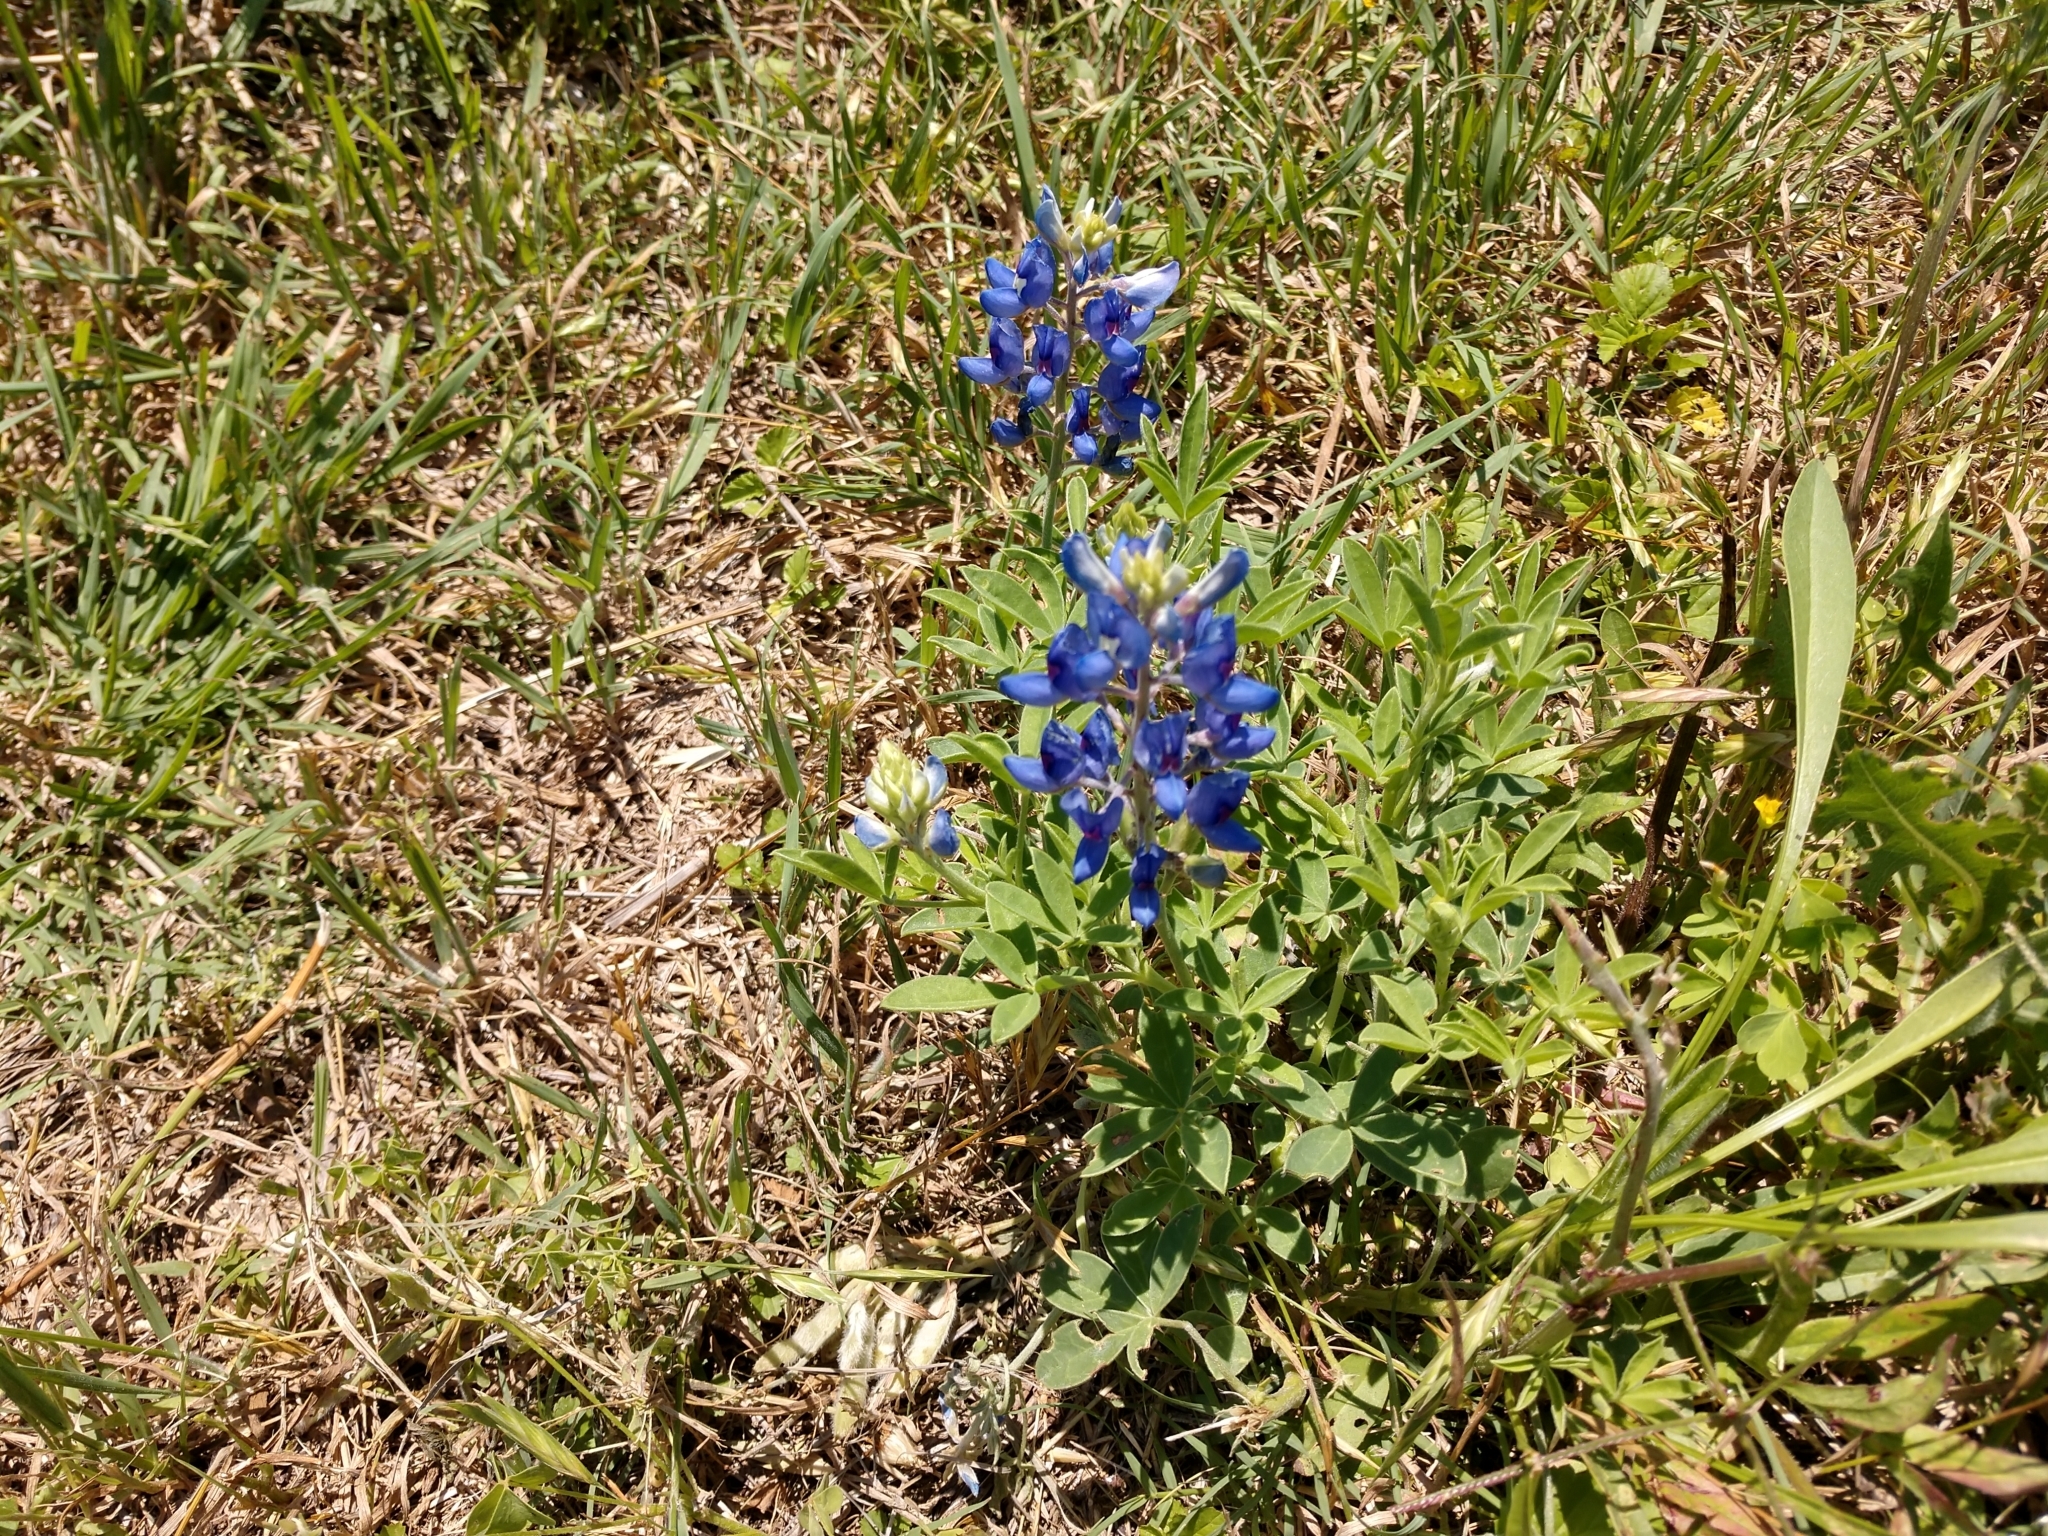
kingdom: Plantae
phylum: Tracheophyta
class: Magnoliopsida
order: Fabales
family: Fabaceae
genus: Lupinus
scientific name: Lupinus texensis
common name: Texas bluebonnet
